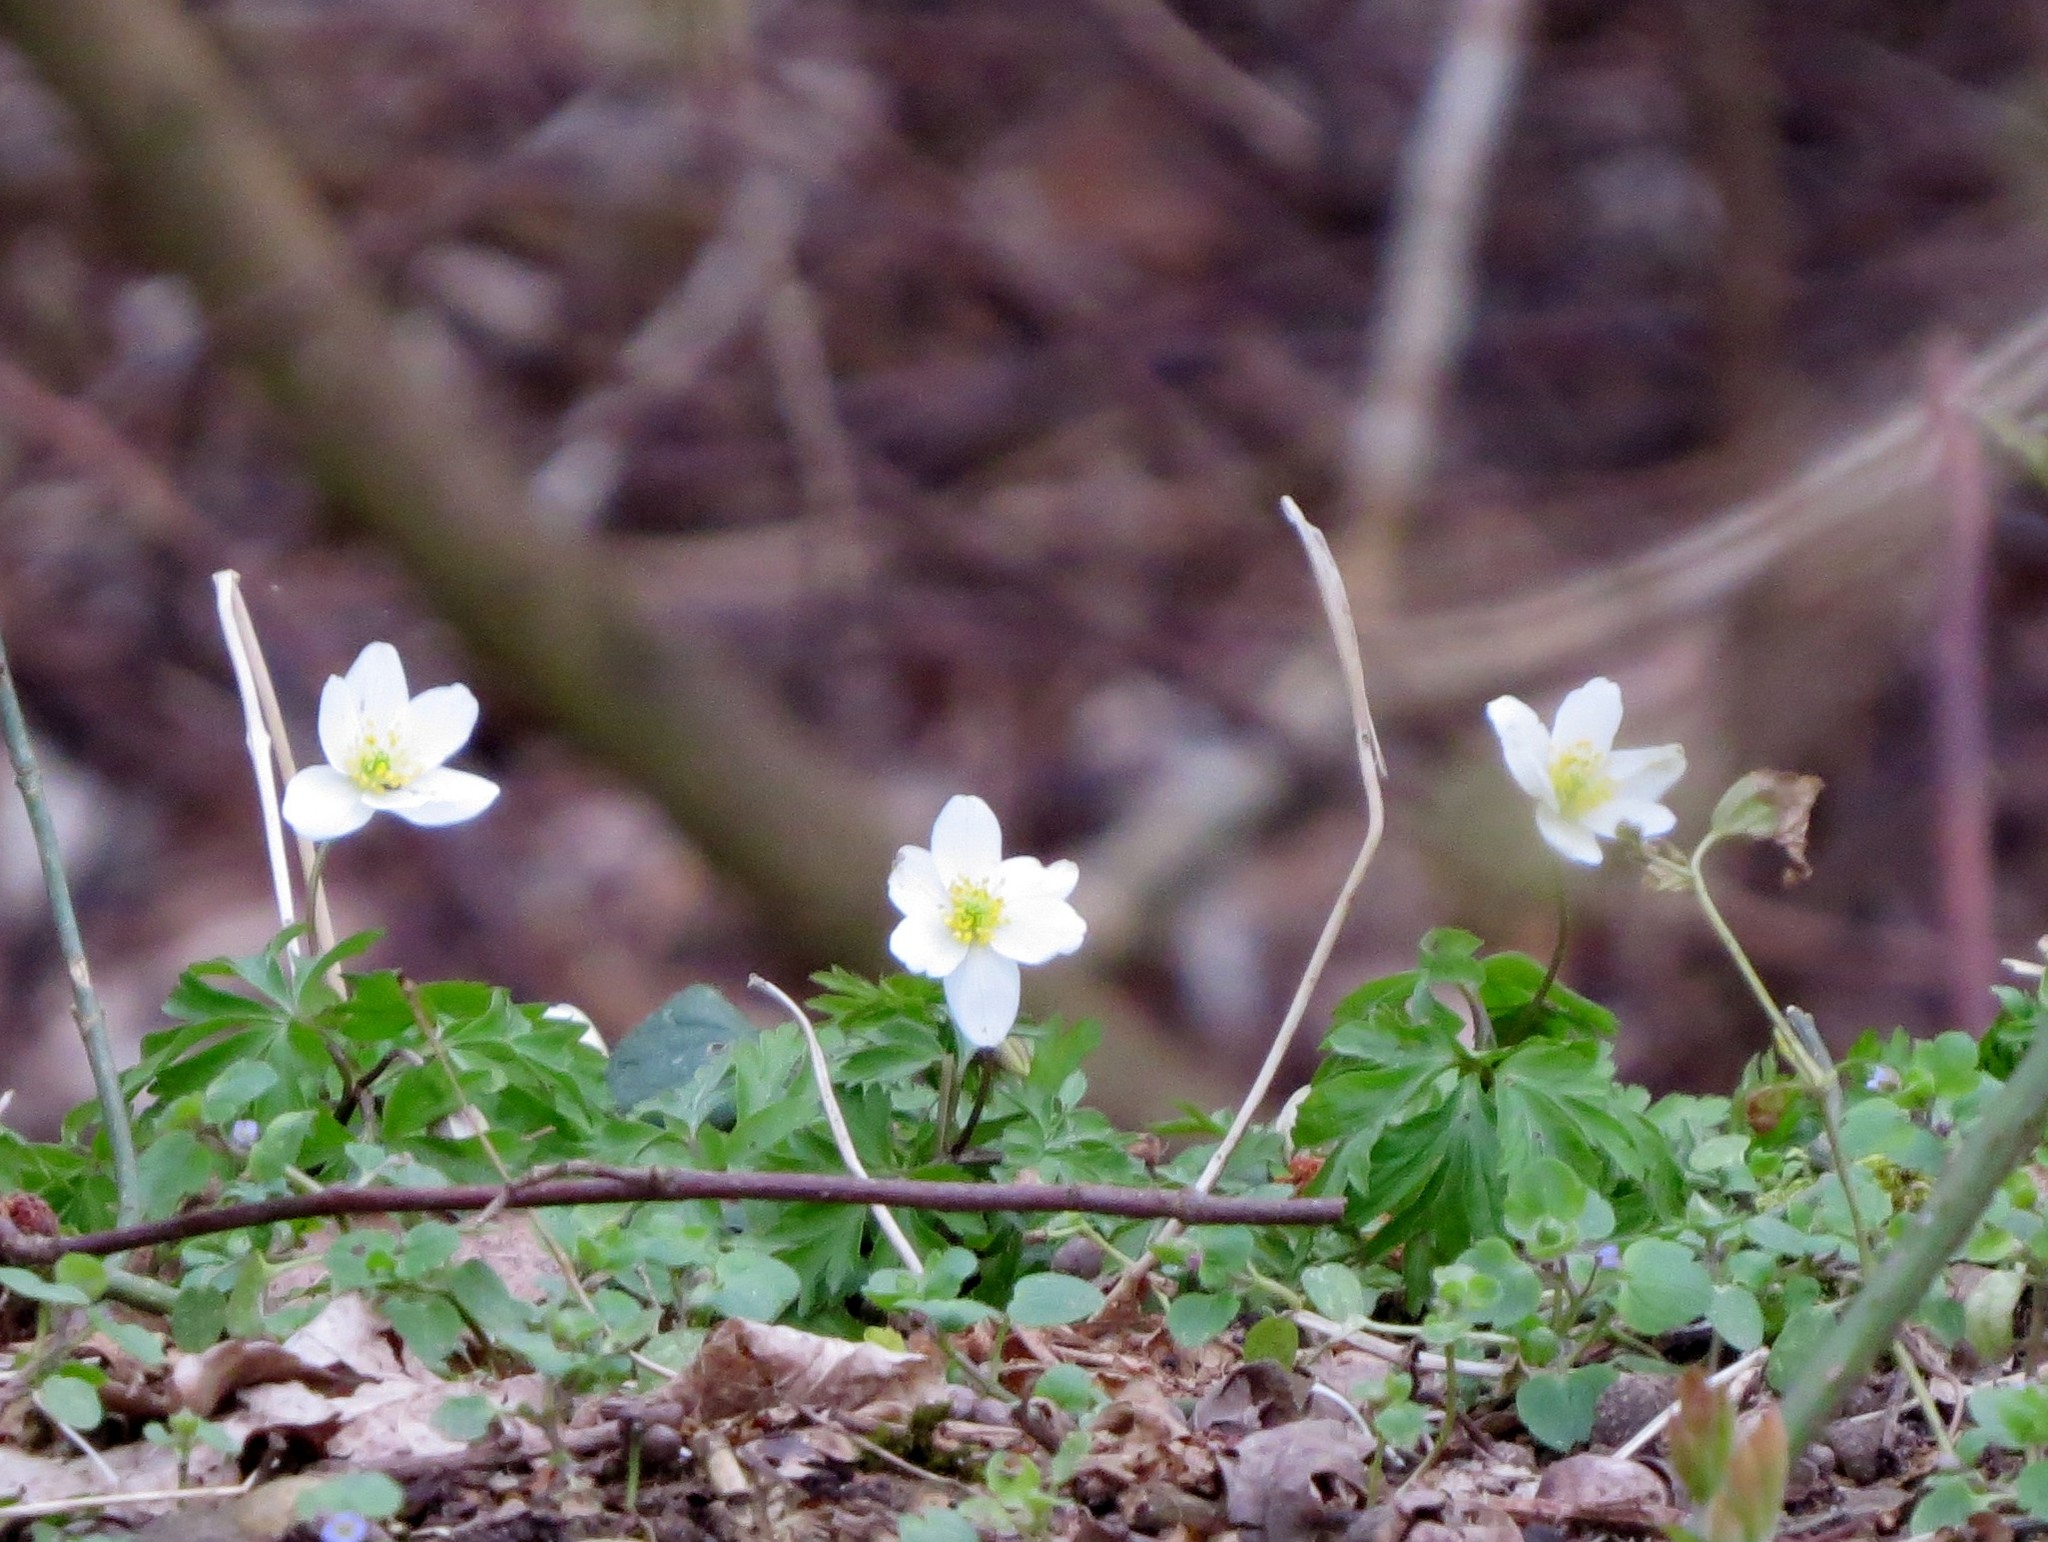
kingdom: Plantae
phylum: Tracheophyta
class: Magnoliopsida
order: Ranunculales
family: Ranunculaceae
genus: Anemone
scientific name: Anemone nemorosa
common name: Wood anemone
